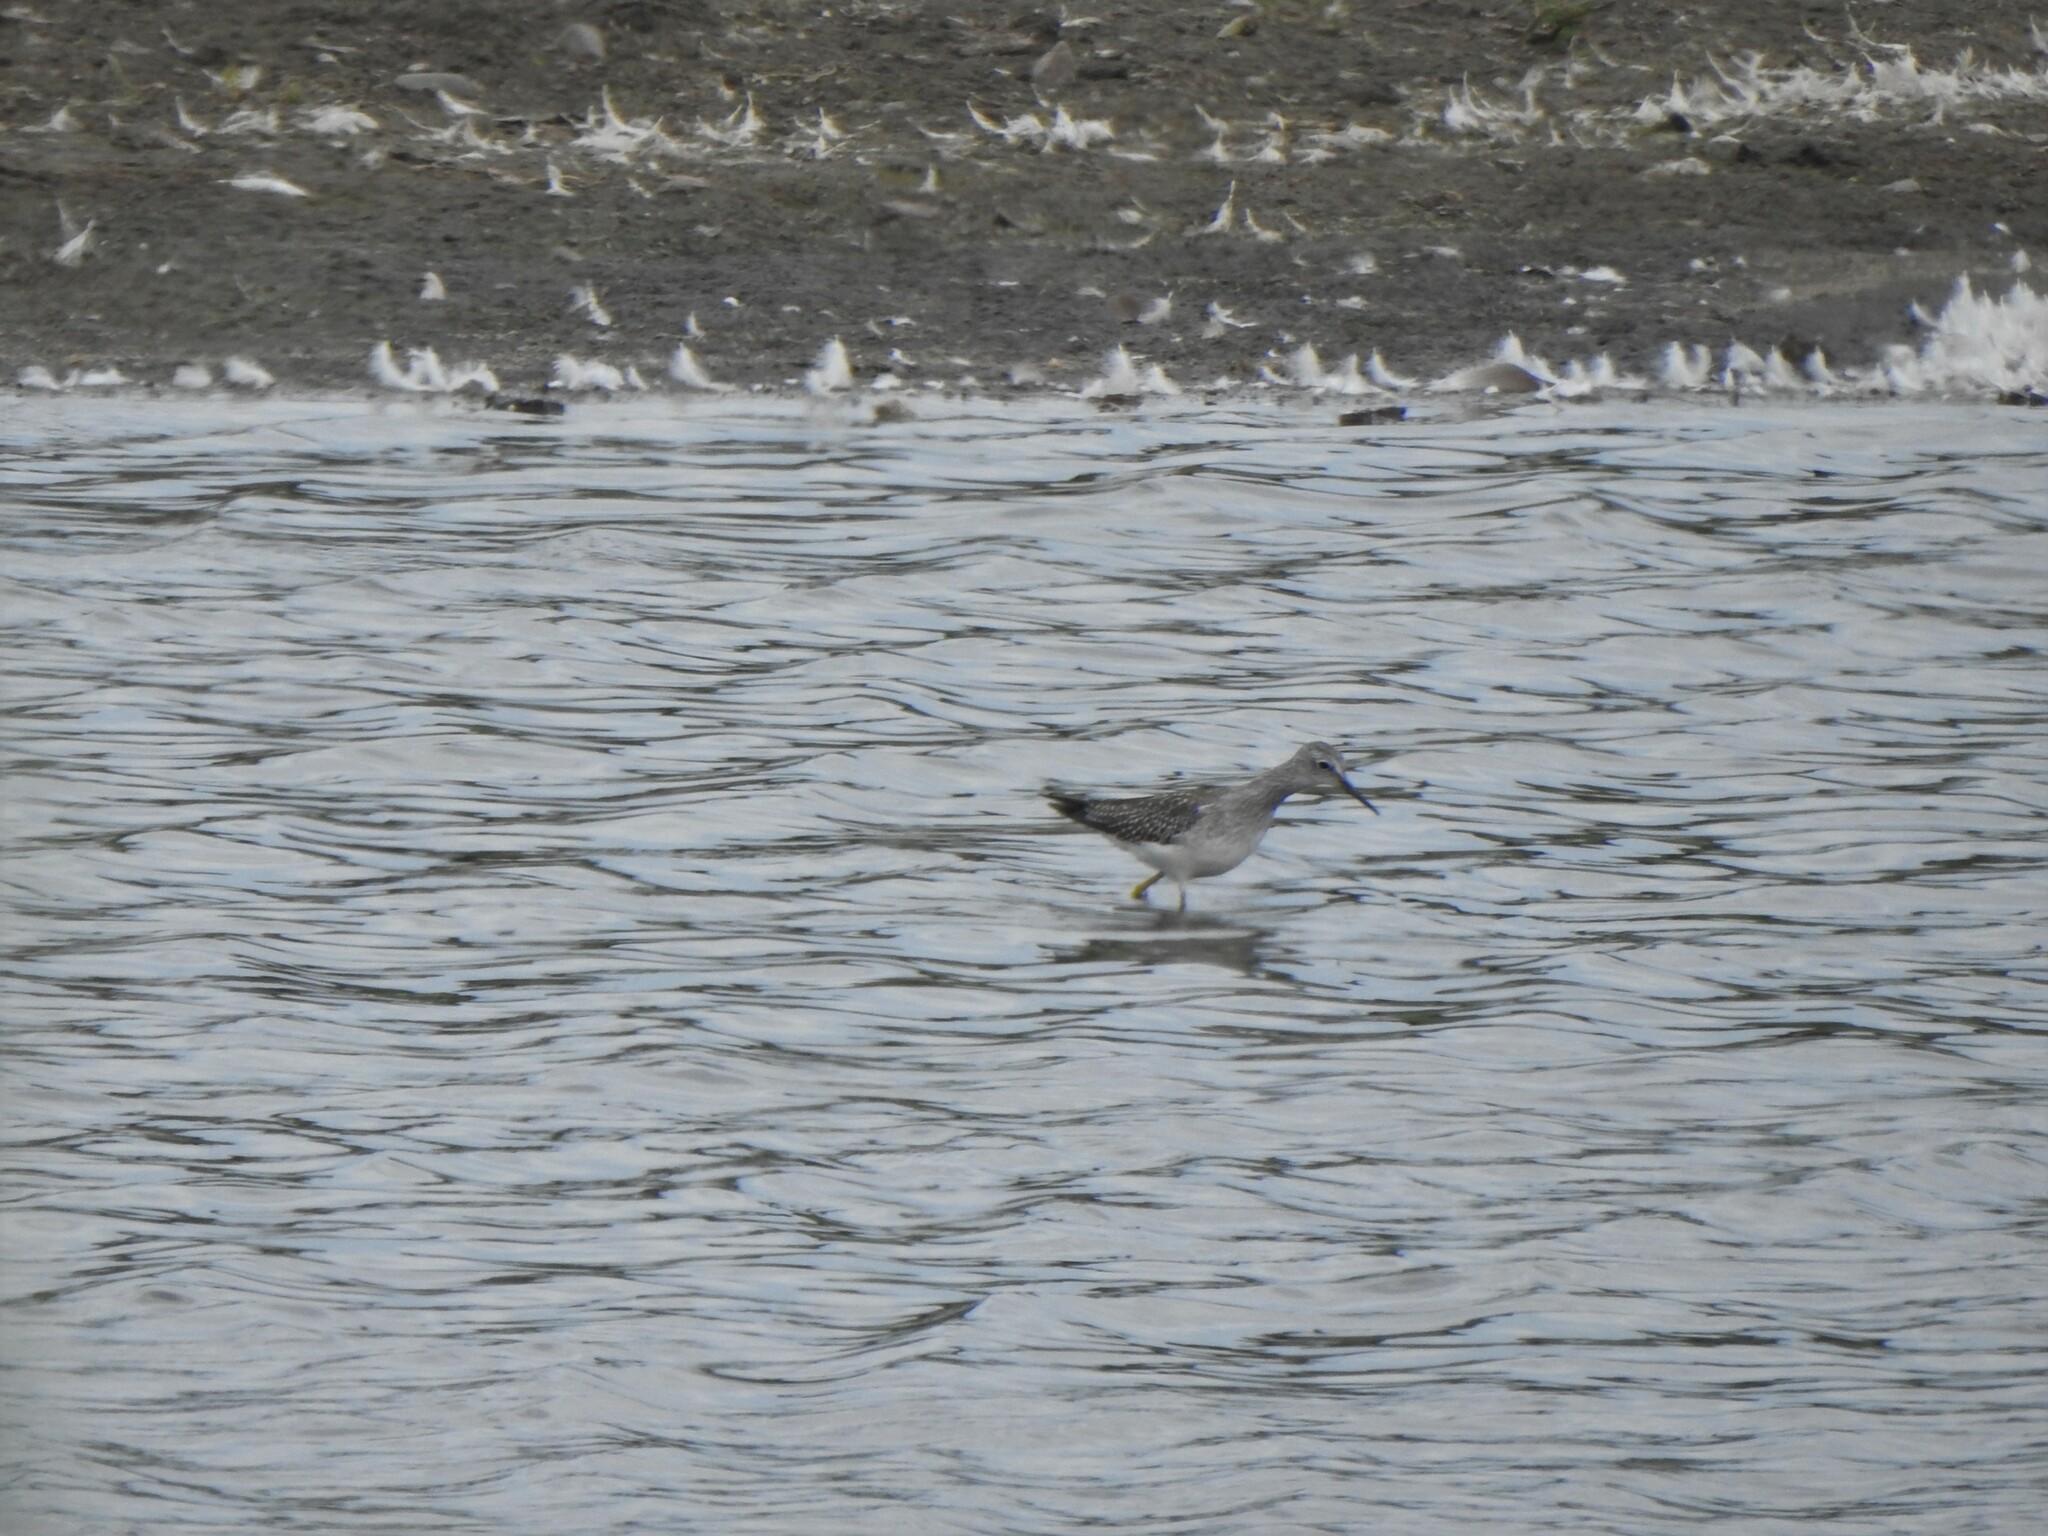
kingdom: Animalia
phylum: Chordata
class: Aves
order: Charadriiformes
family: Scolopacidae
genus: Tringa
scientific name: Tringa flavipes
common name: Lesser yellowlegs
